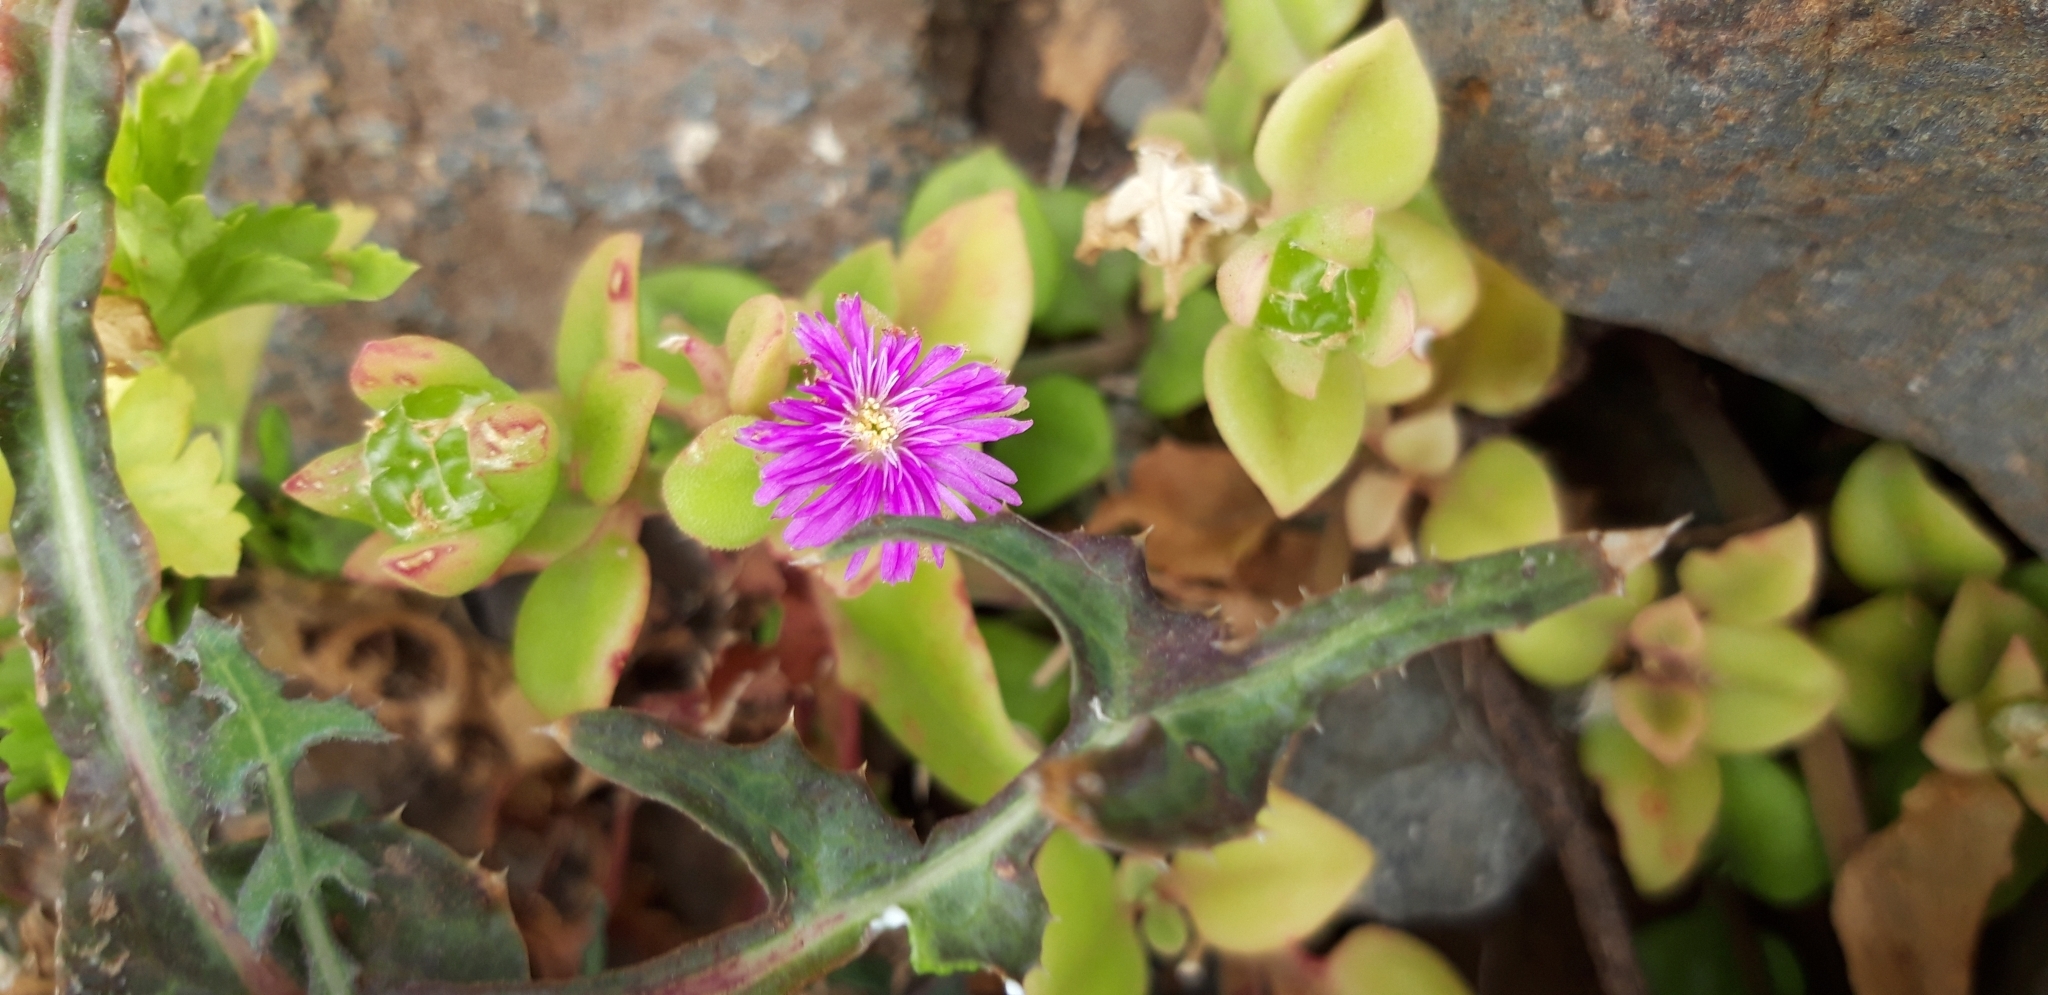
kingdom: Plantae
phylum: Tracheophyta
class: Magnoliopsida
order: Caryophyllales
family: Aizoaceae
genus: Mesembryanthemum
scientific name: Mesembryanthemum cordifolium
